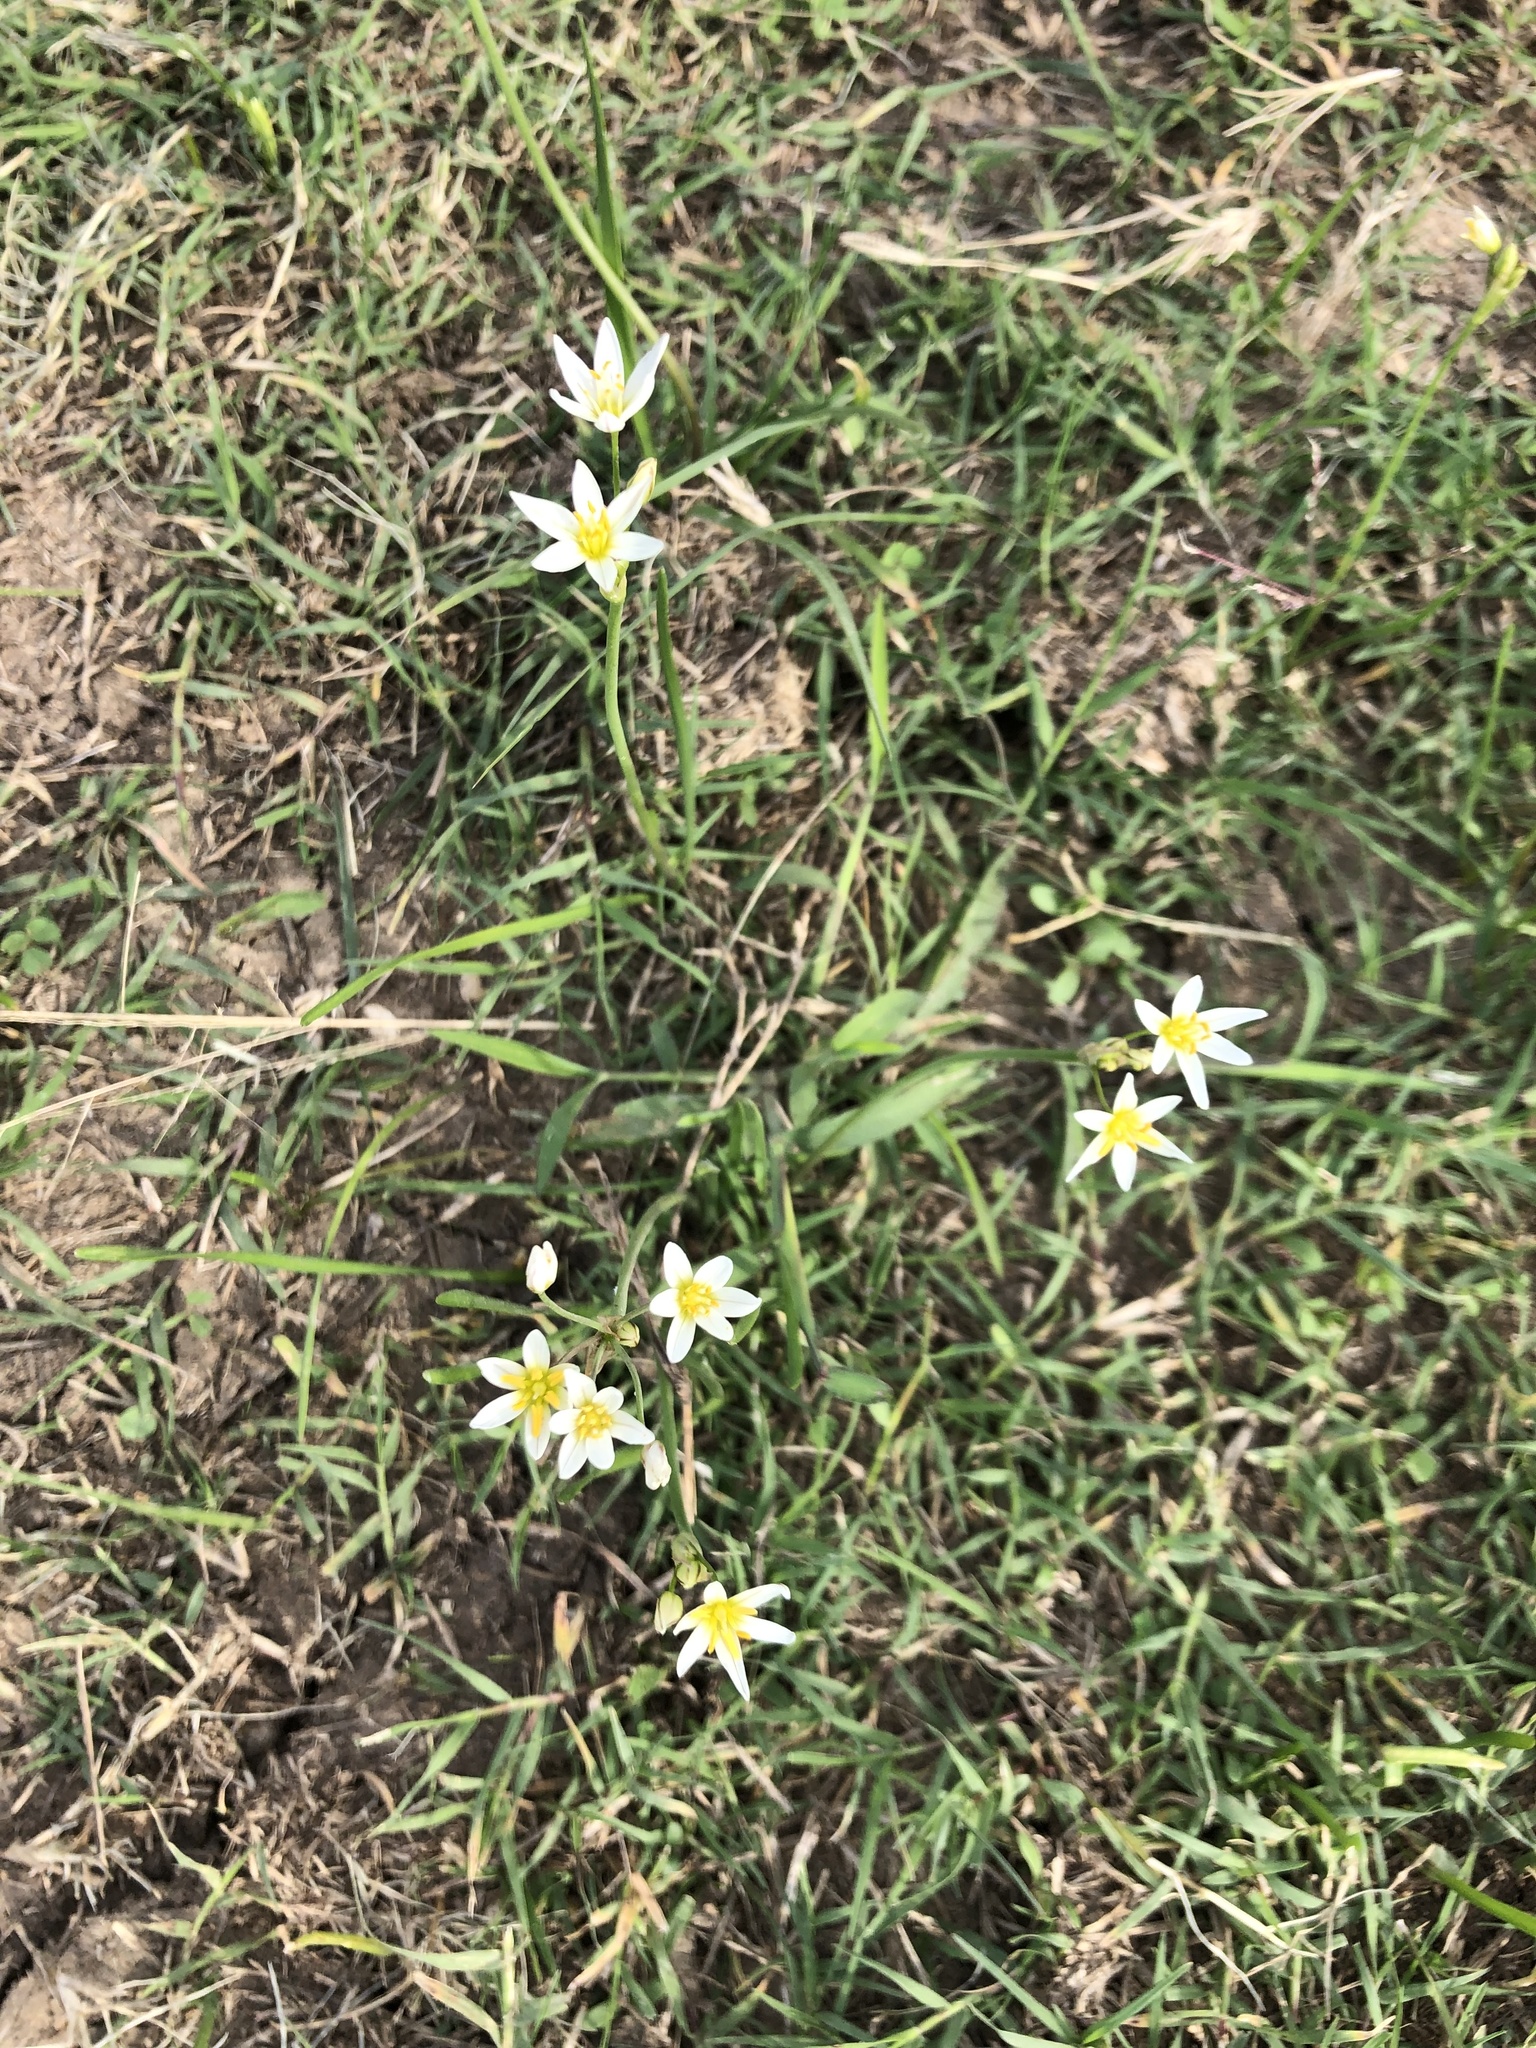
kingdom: Plantae
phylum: Tracheophyta
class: Liliopsida
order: Asparagales
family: Amaryllidaceae
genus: Nothoscordum
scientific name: Nothoscordum bivalve
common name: Crow-poison
